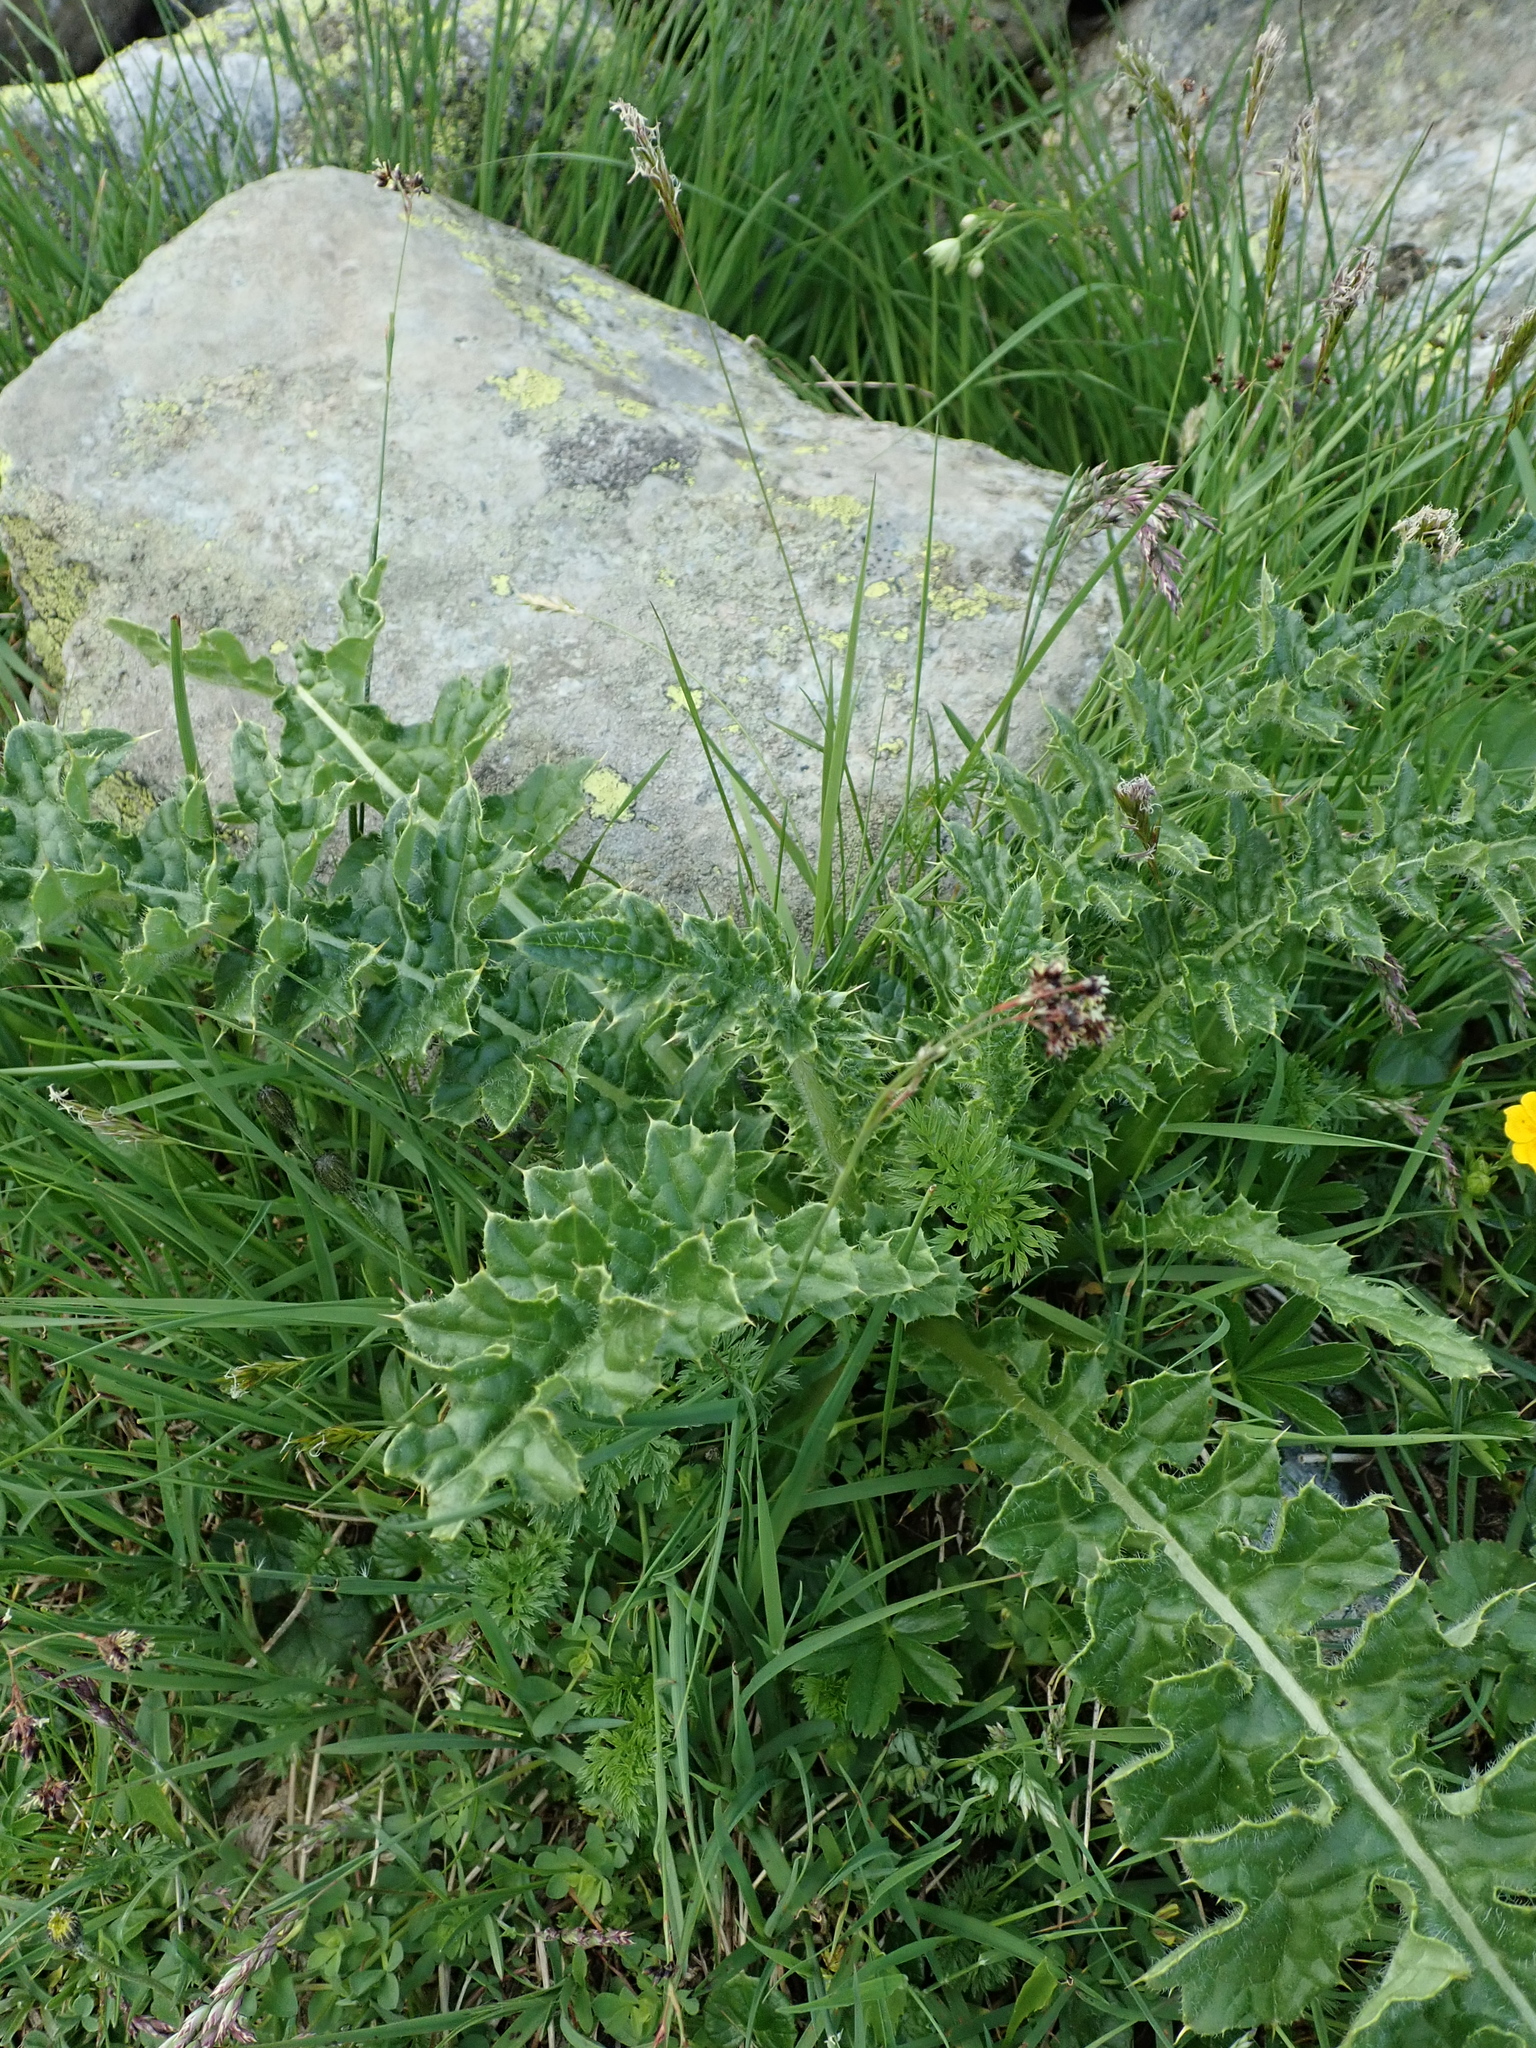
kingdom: Plantae
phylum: Tracheophyta
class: Magnoliopsida
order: Asterales
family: Asteraceae
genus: Cirsium
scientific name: Cirsium spinosissimum
